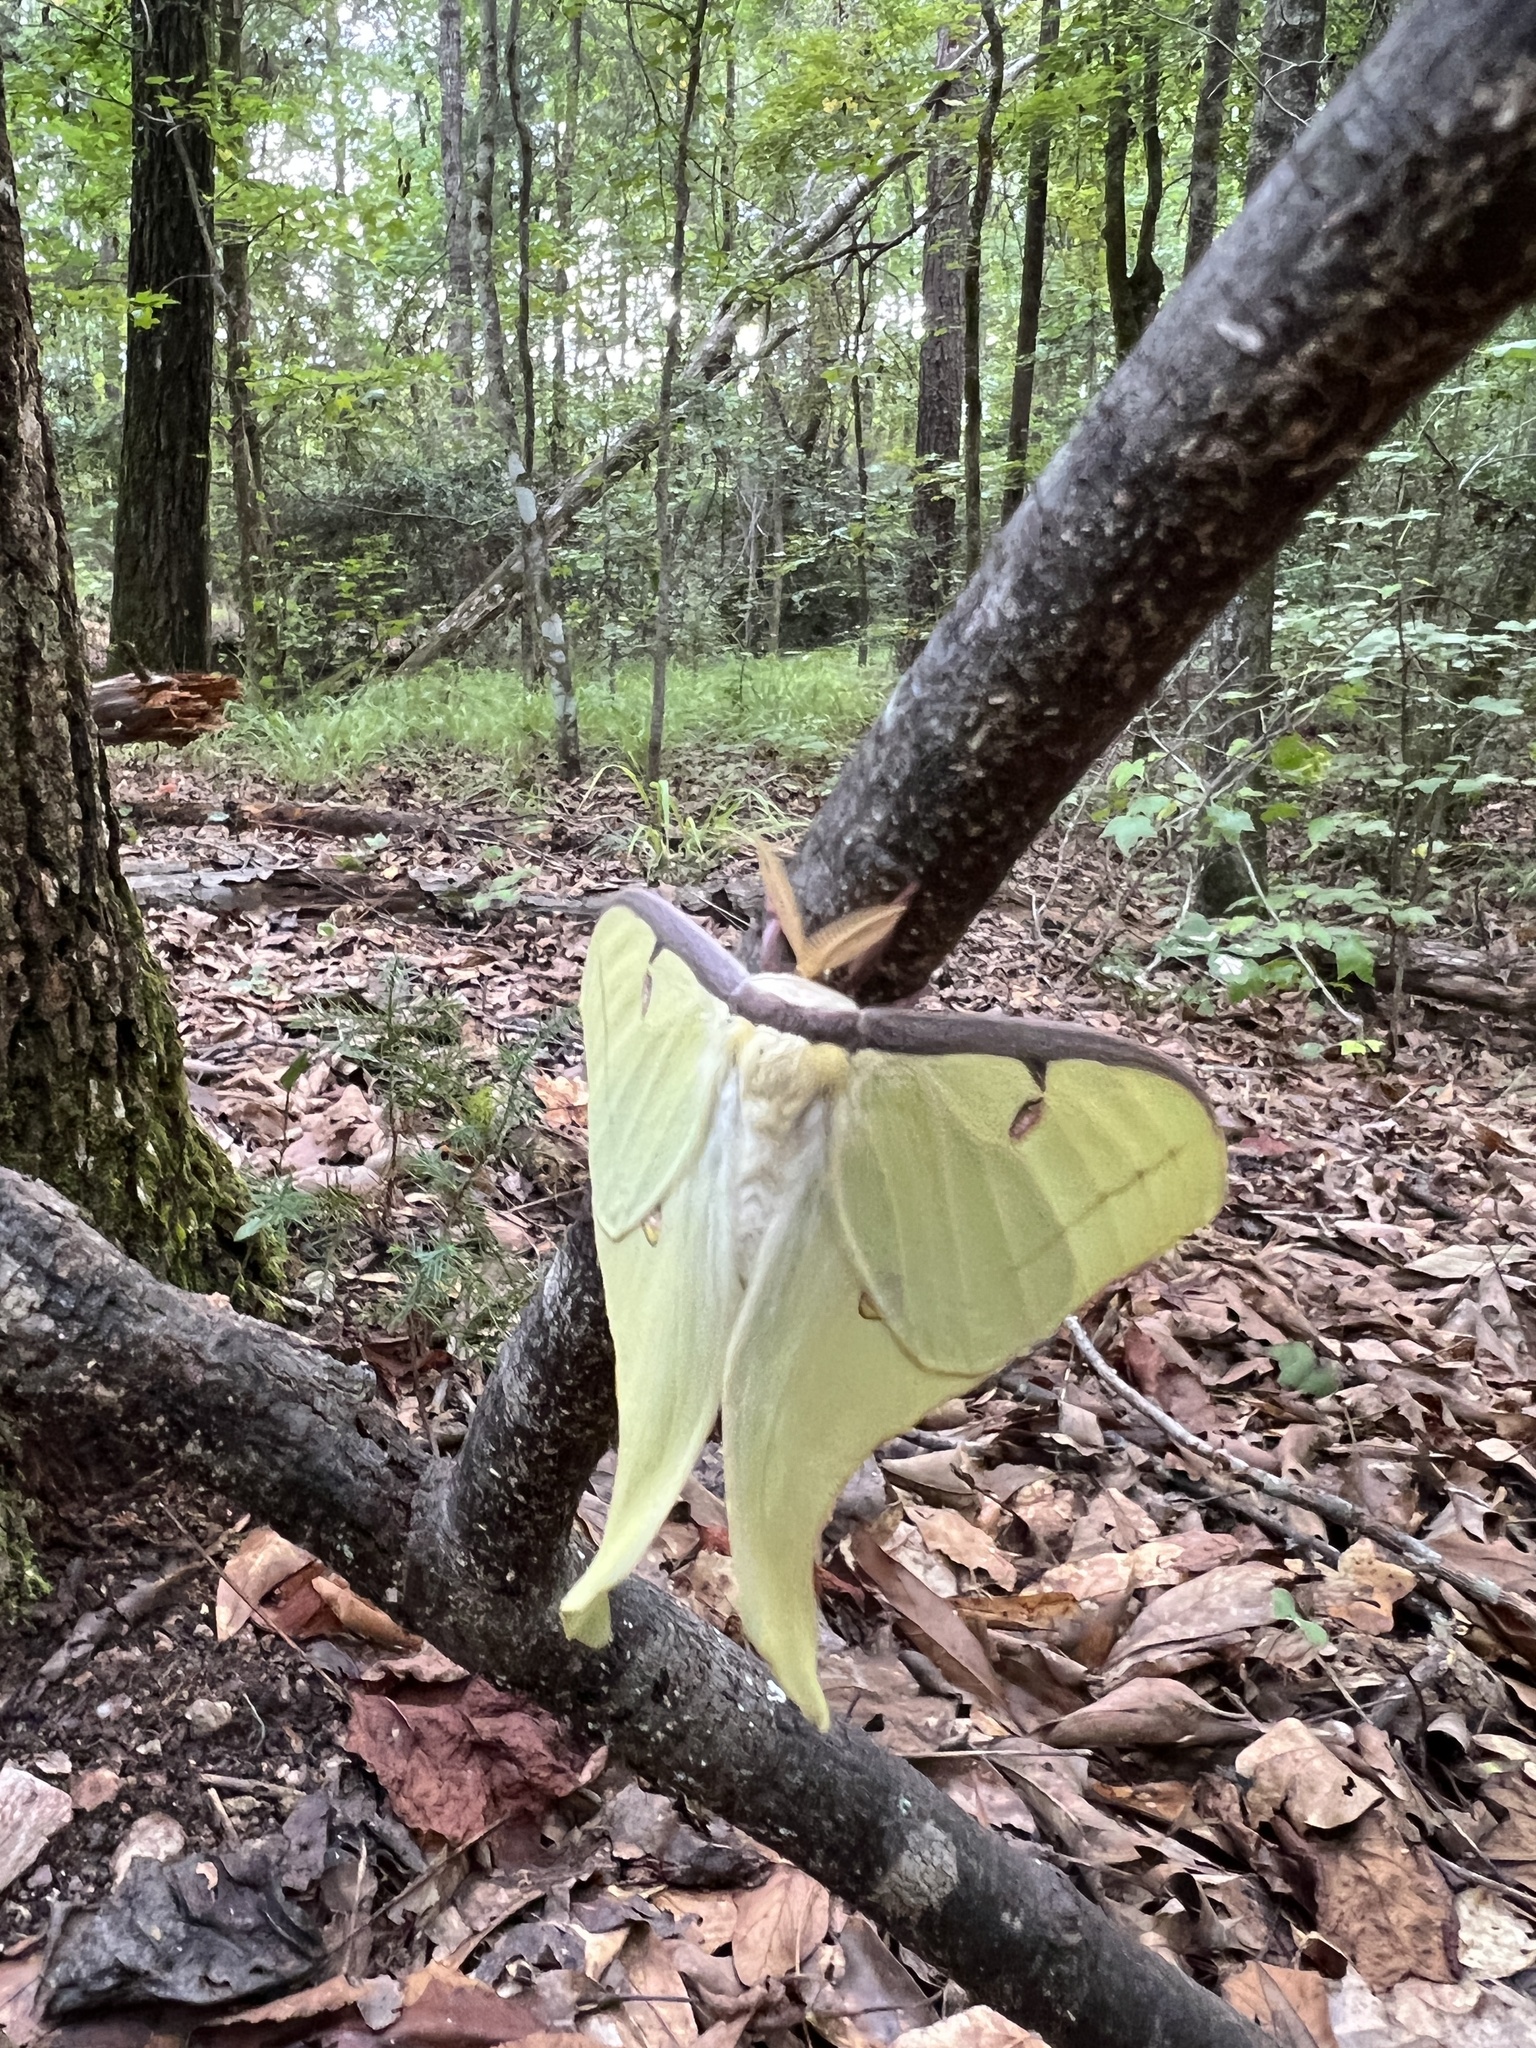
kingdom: Animalia
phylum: Arthropoda
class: Insecta
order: Lepidoptera
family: Saturniidae
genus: Actias
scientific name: Actias luna
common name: Luna moth
